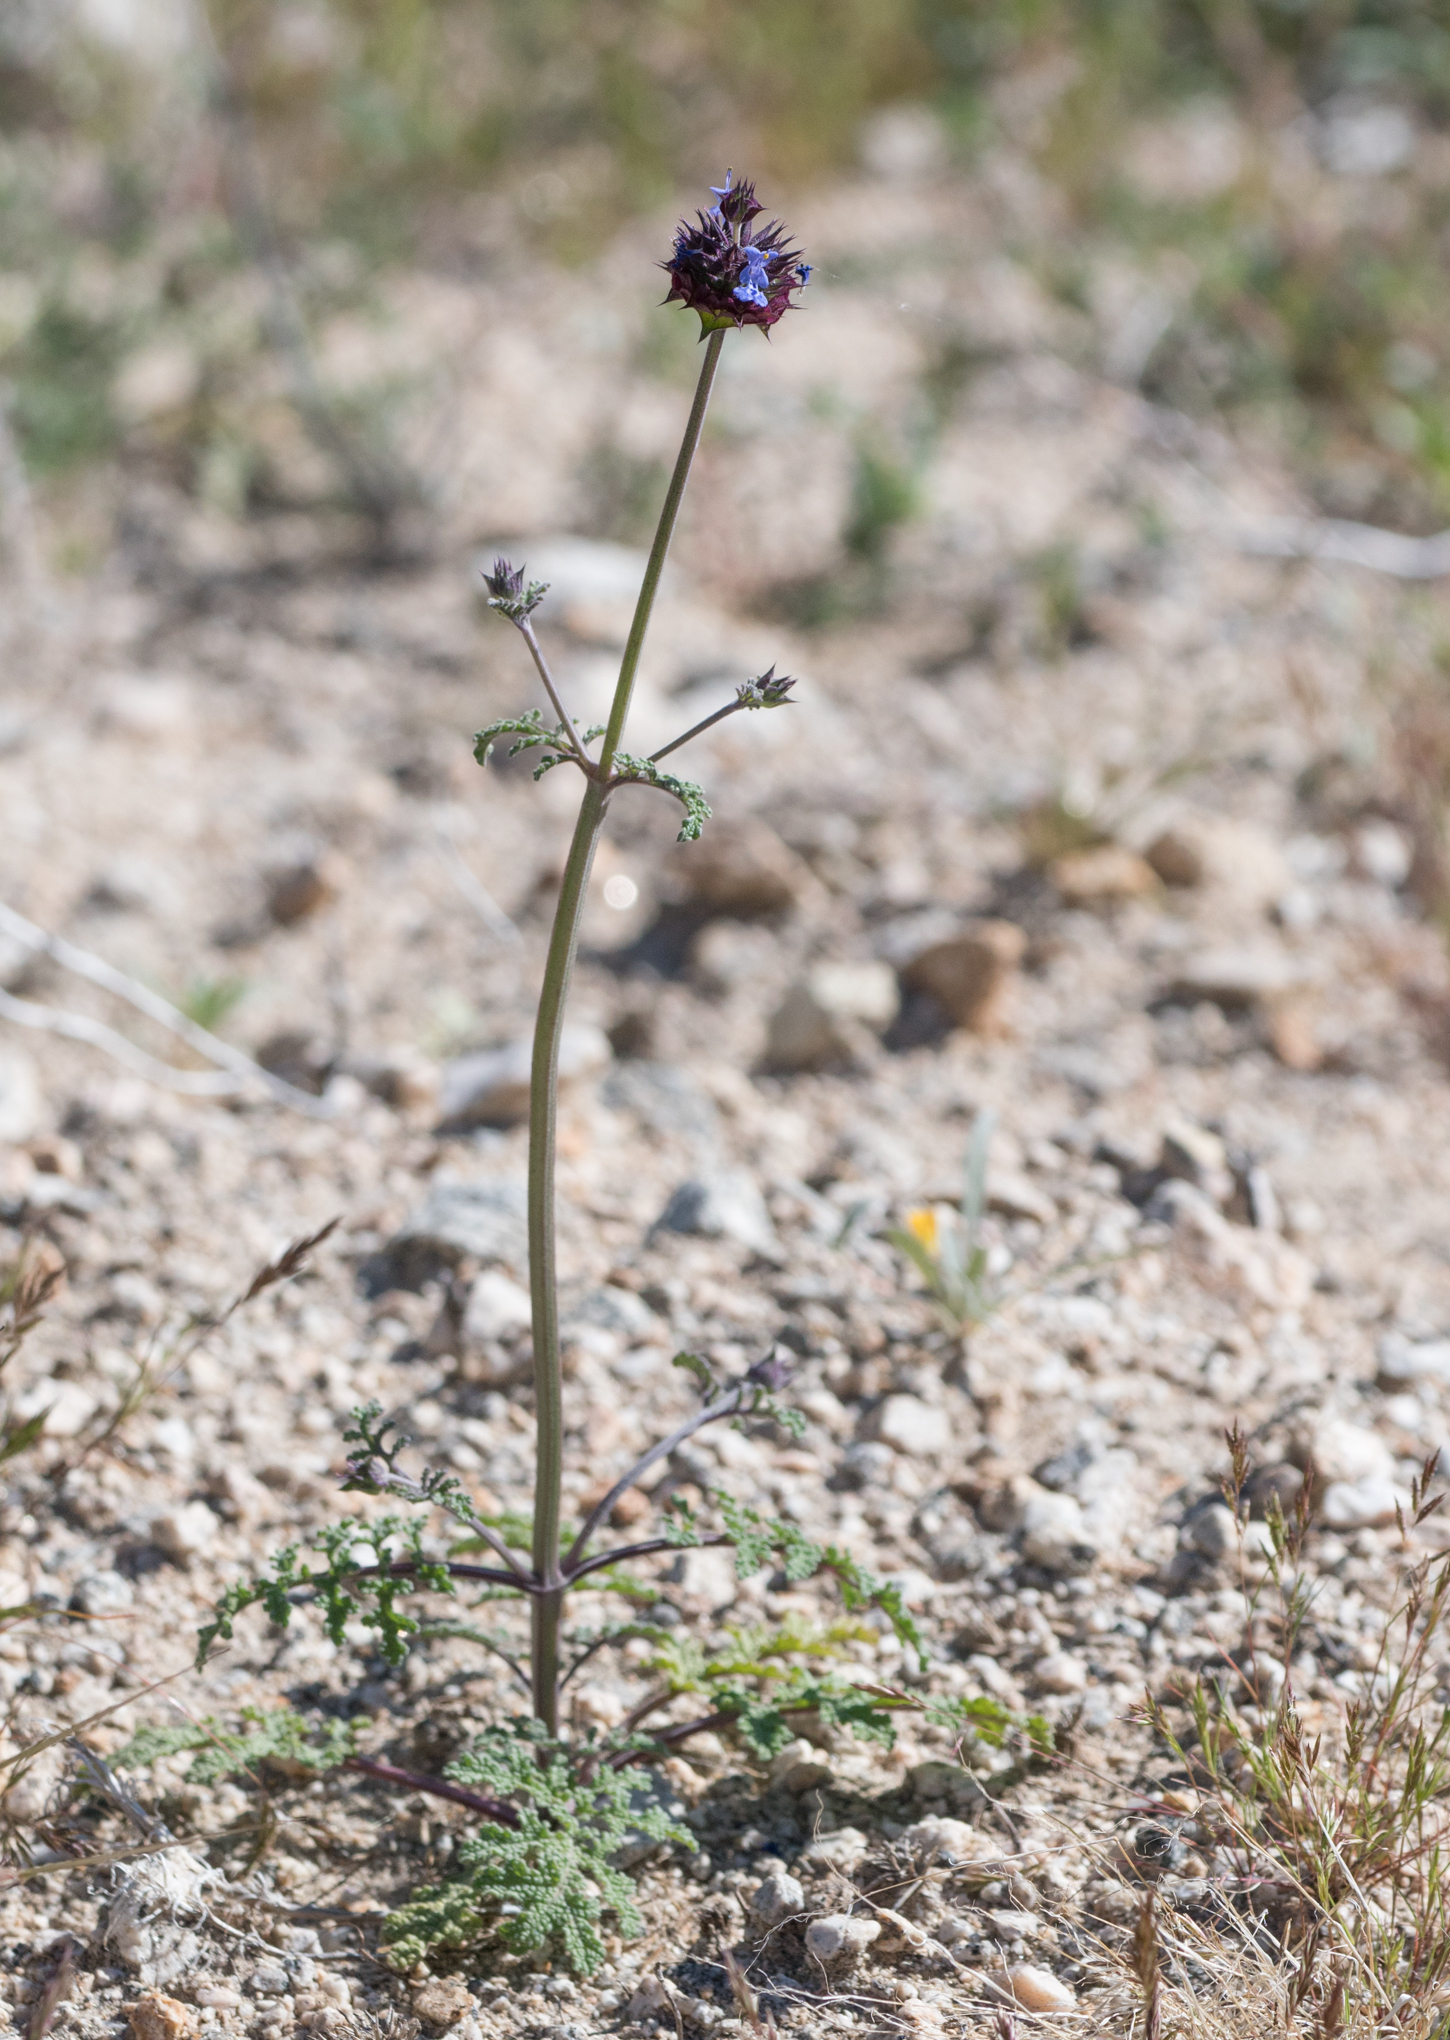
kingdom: Plantae
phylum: Tracheophyta
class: Magnoliopsida
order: Lamiales
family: Lamiaceae
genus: Salvia
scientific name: Salvia columbariae
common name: Chia
